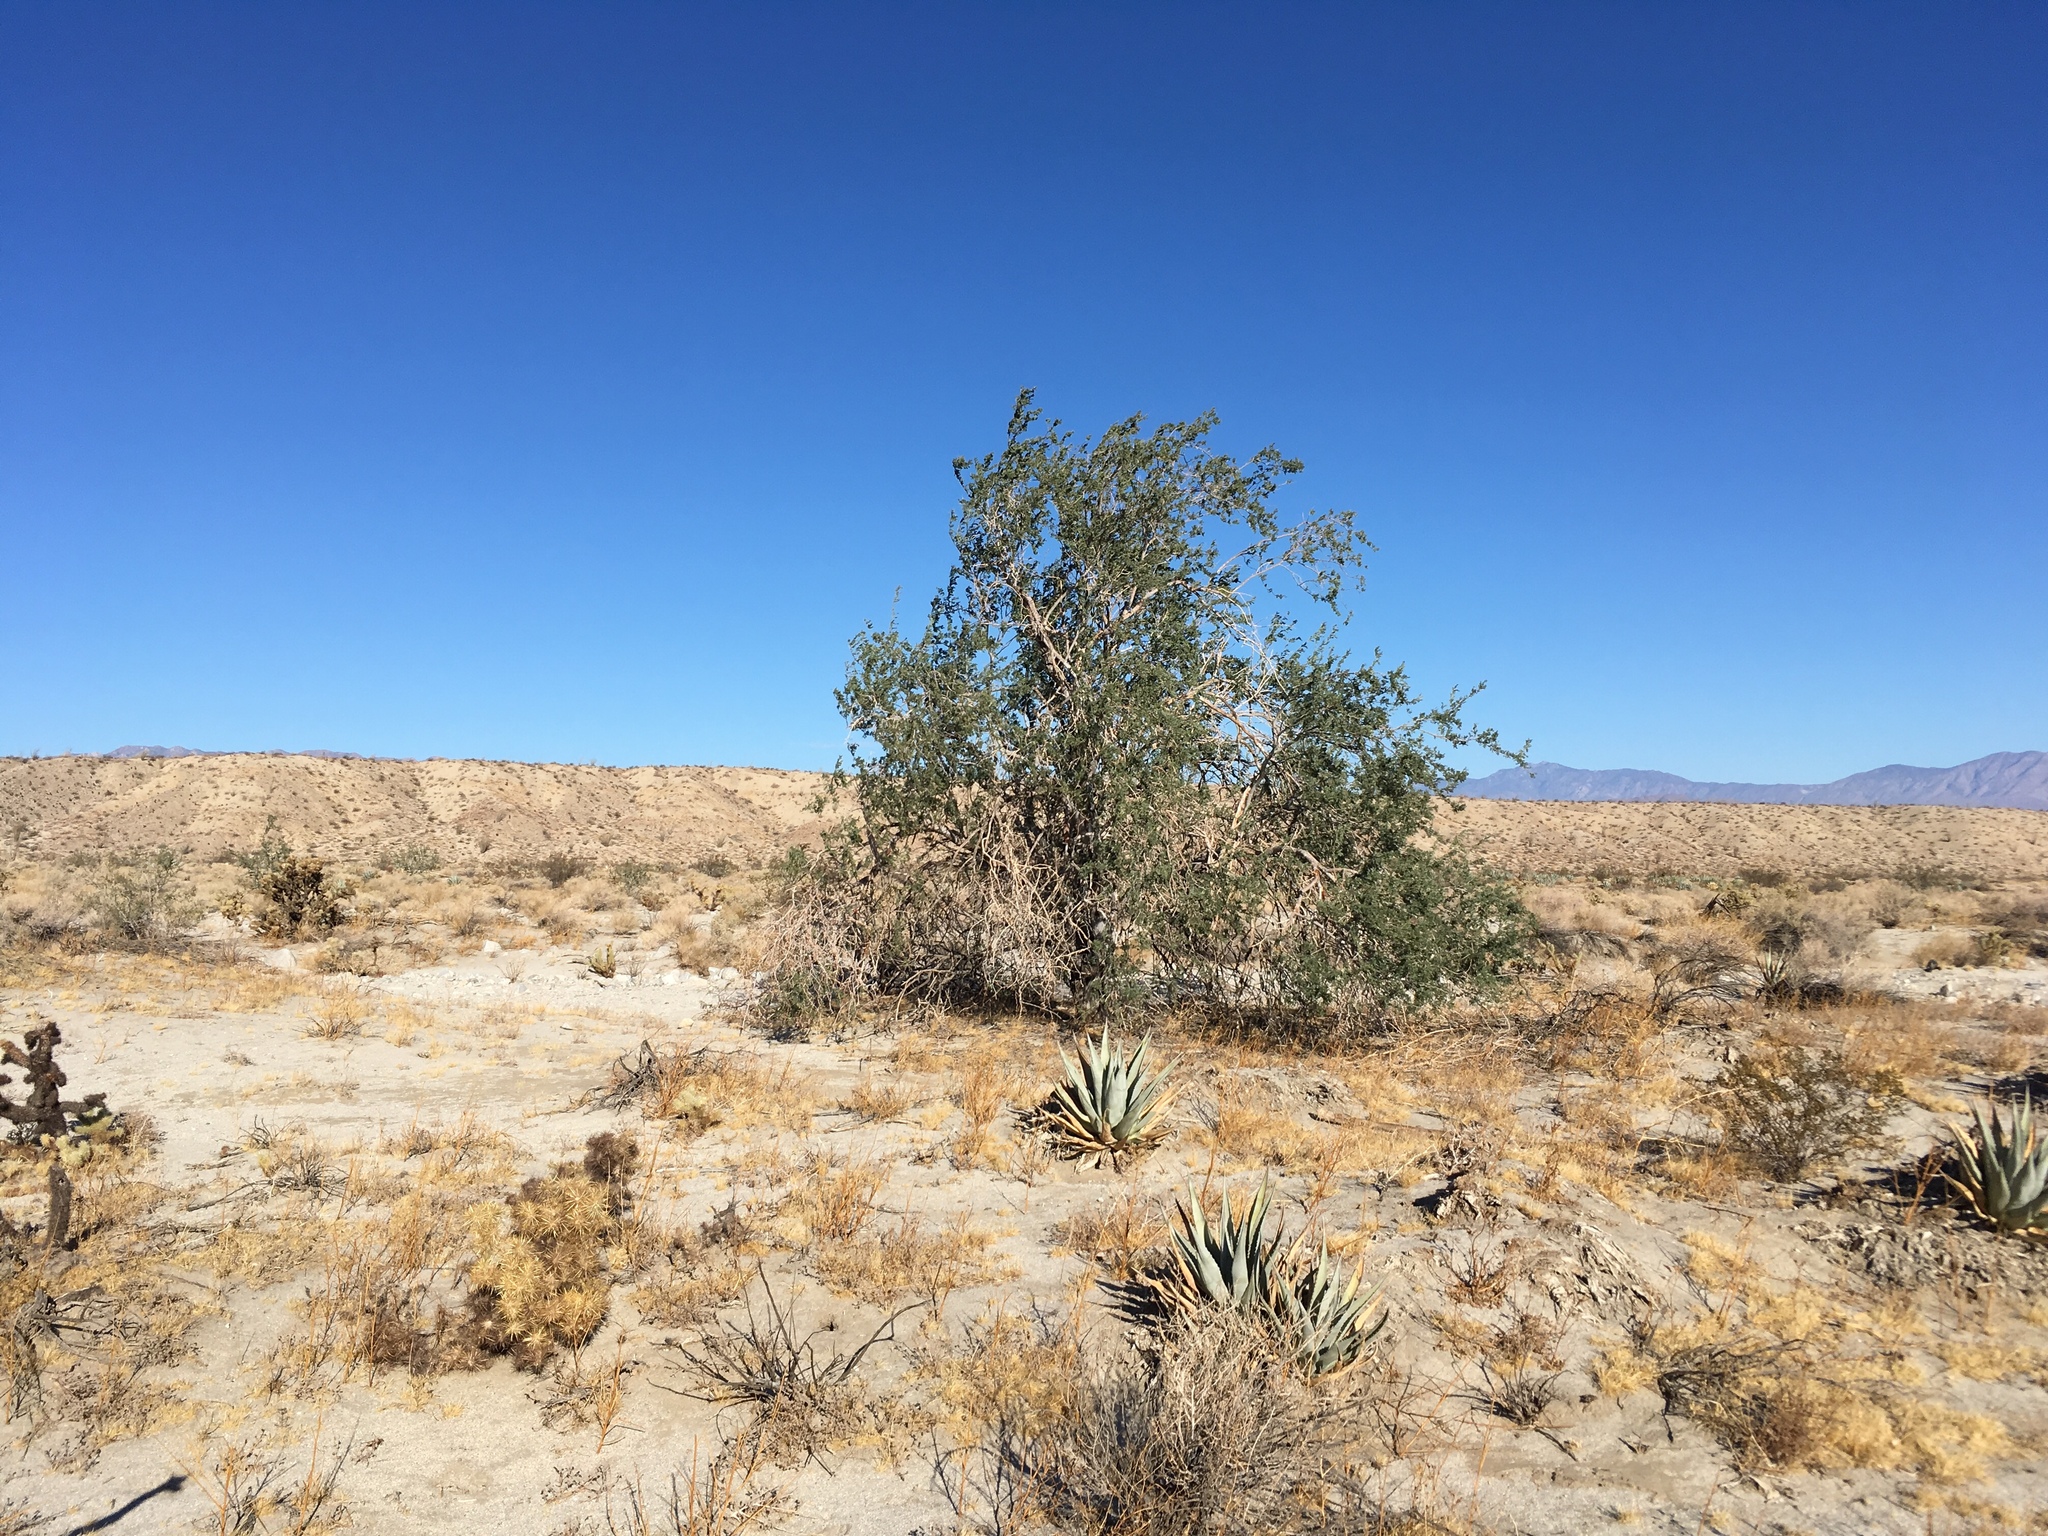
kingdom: Plantae
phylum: Tracheophyta
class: Magnoliopsida
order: Fabales
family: Fabaceae
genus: Olneya
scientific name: Olneya tesota
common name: Desert ironwood
